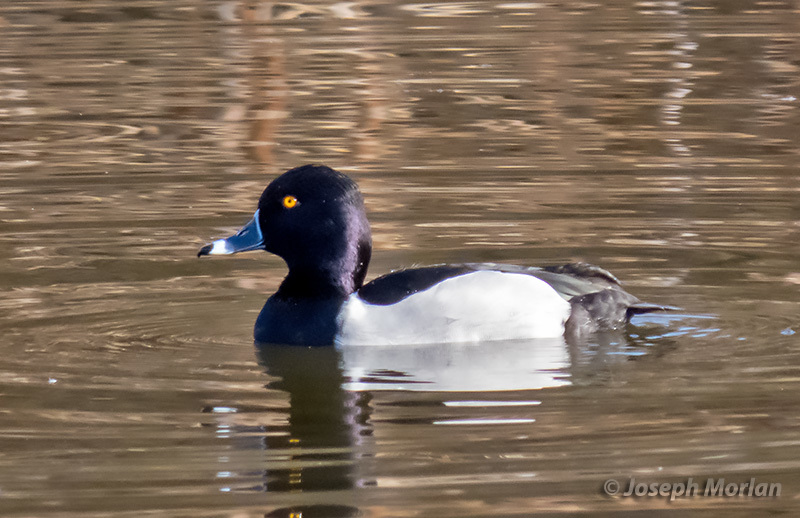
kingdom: Animalia
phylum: Chordata
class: Aves
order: Anseriformes
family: Anatidae
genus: Aythya
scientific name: Aythya collaris
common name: Ring-necked duck
